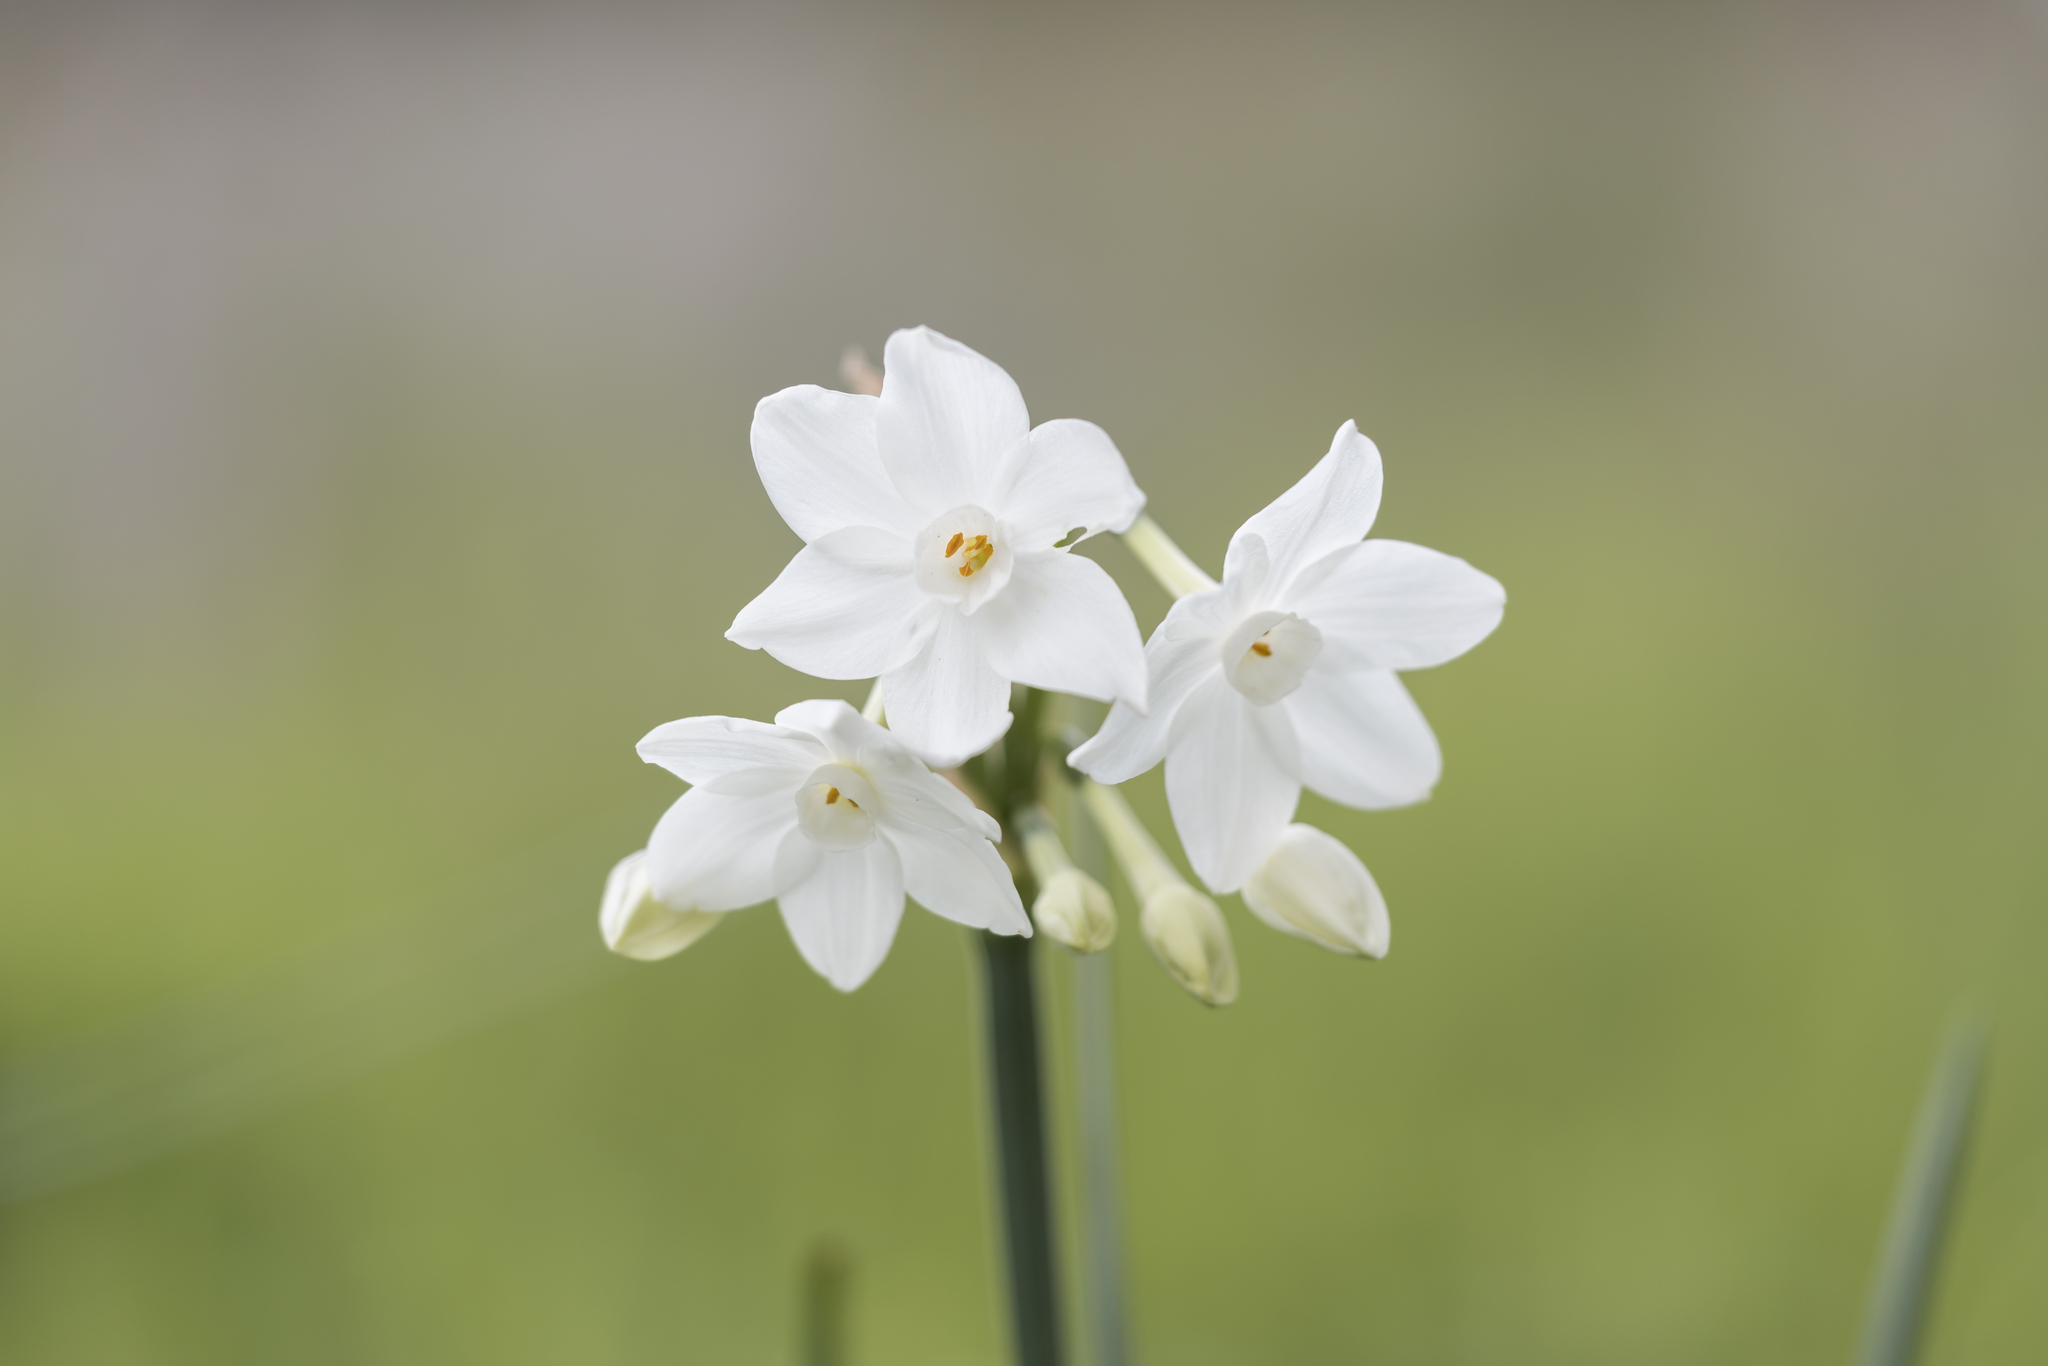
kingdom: Plantae
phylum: Tracheophyta
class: Liliopsida
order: Asparagales
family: Amaryllidaceae
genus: Narcissus
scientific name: Narcissus papyraceus
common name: Paper-white daffodil
